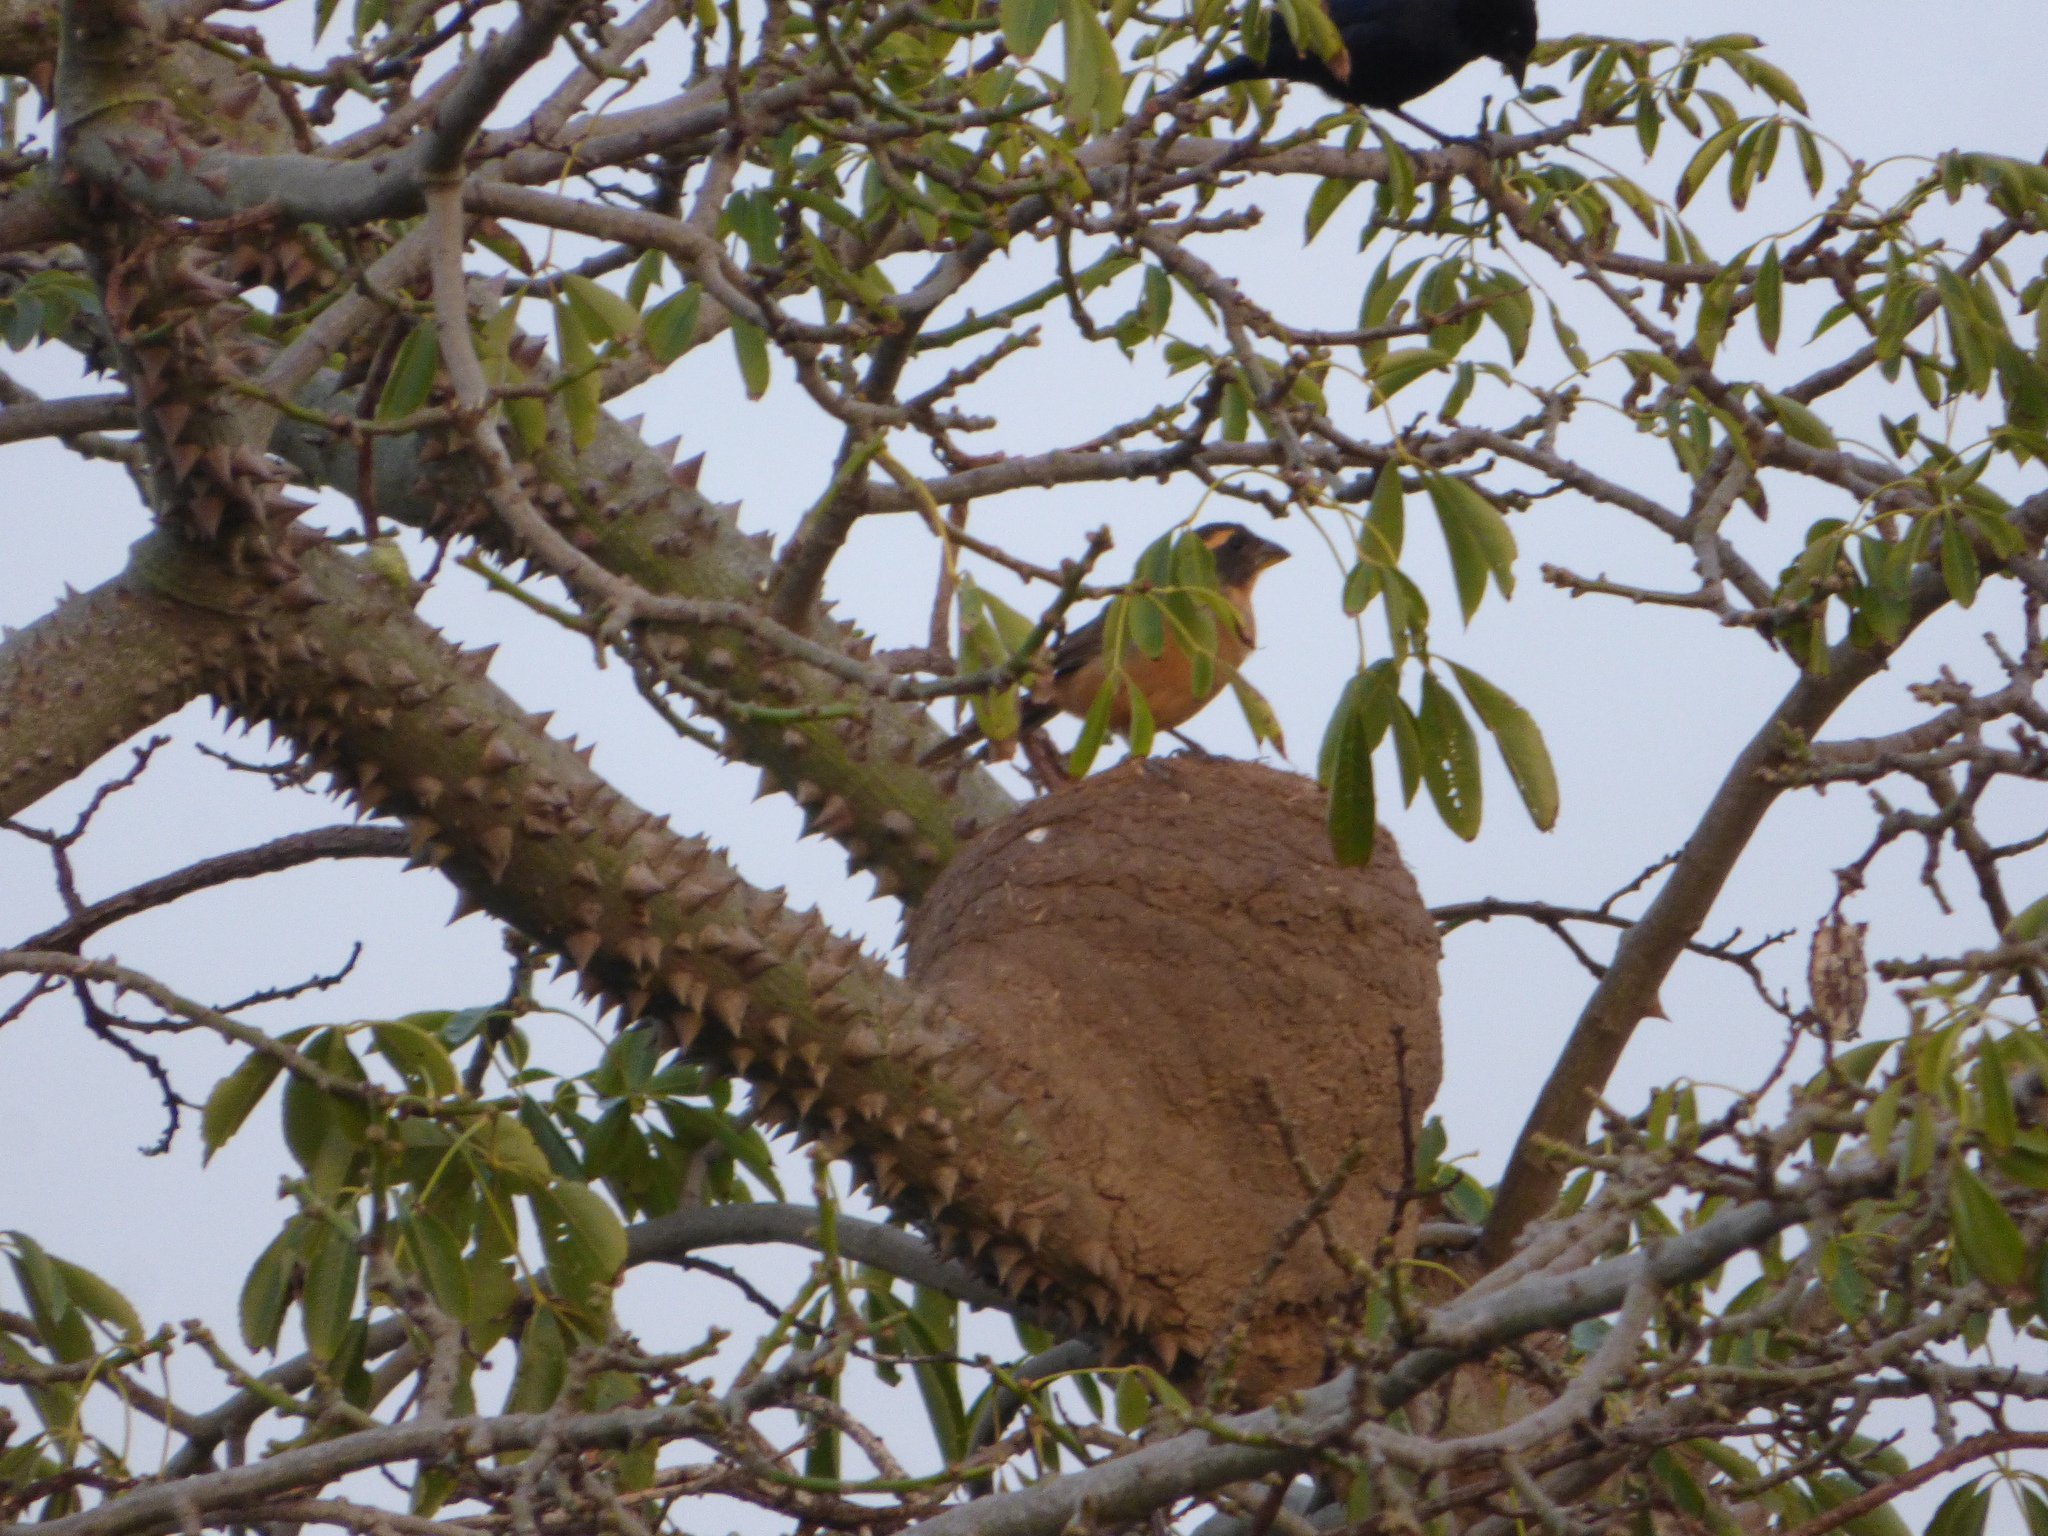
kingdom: Animalia
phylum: Chordata
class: Aves
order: Passeriformes
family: Thraupidae
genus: Saltator
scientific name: Saltator aurantiirostris
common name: Golden-billed saltator
